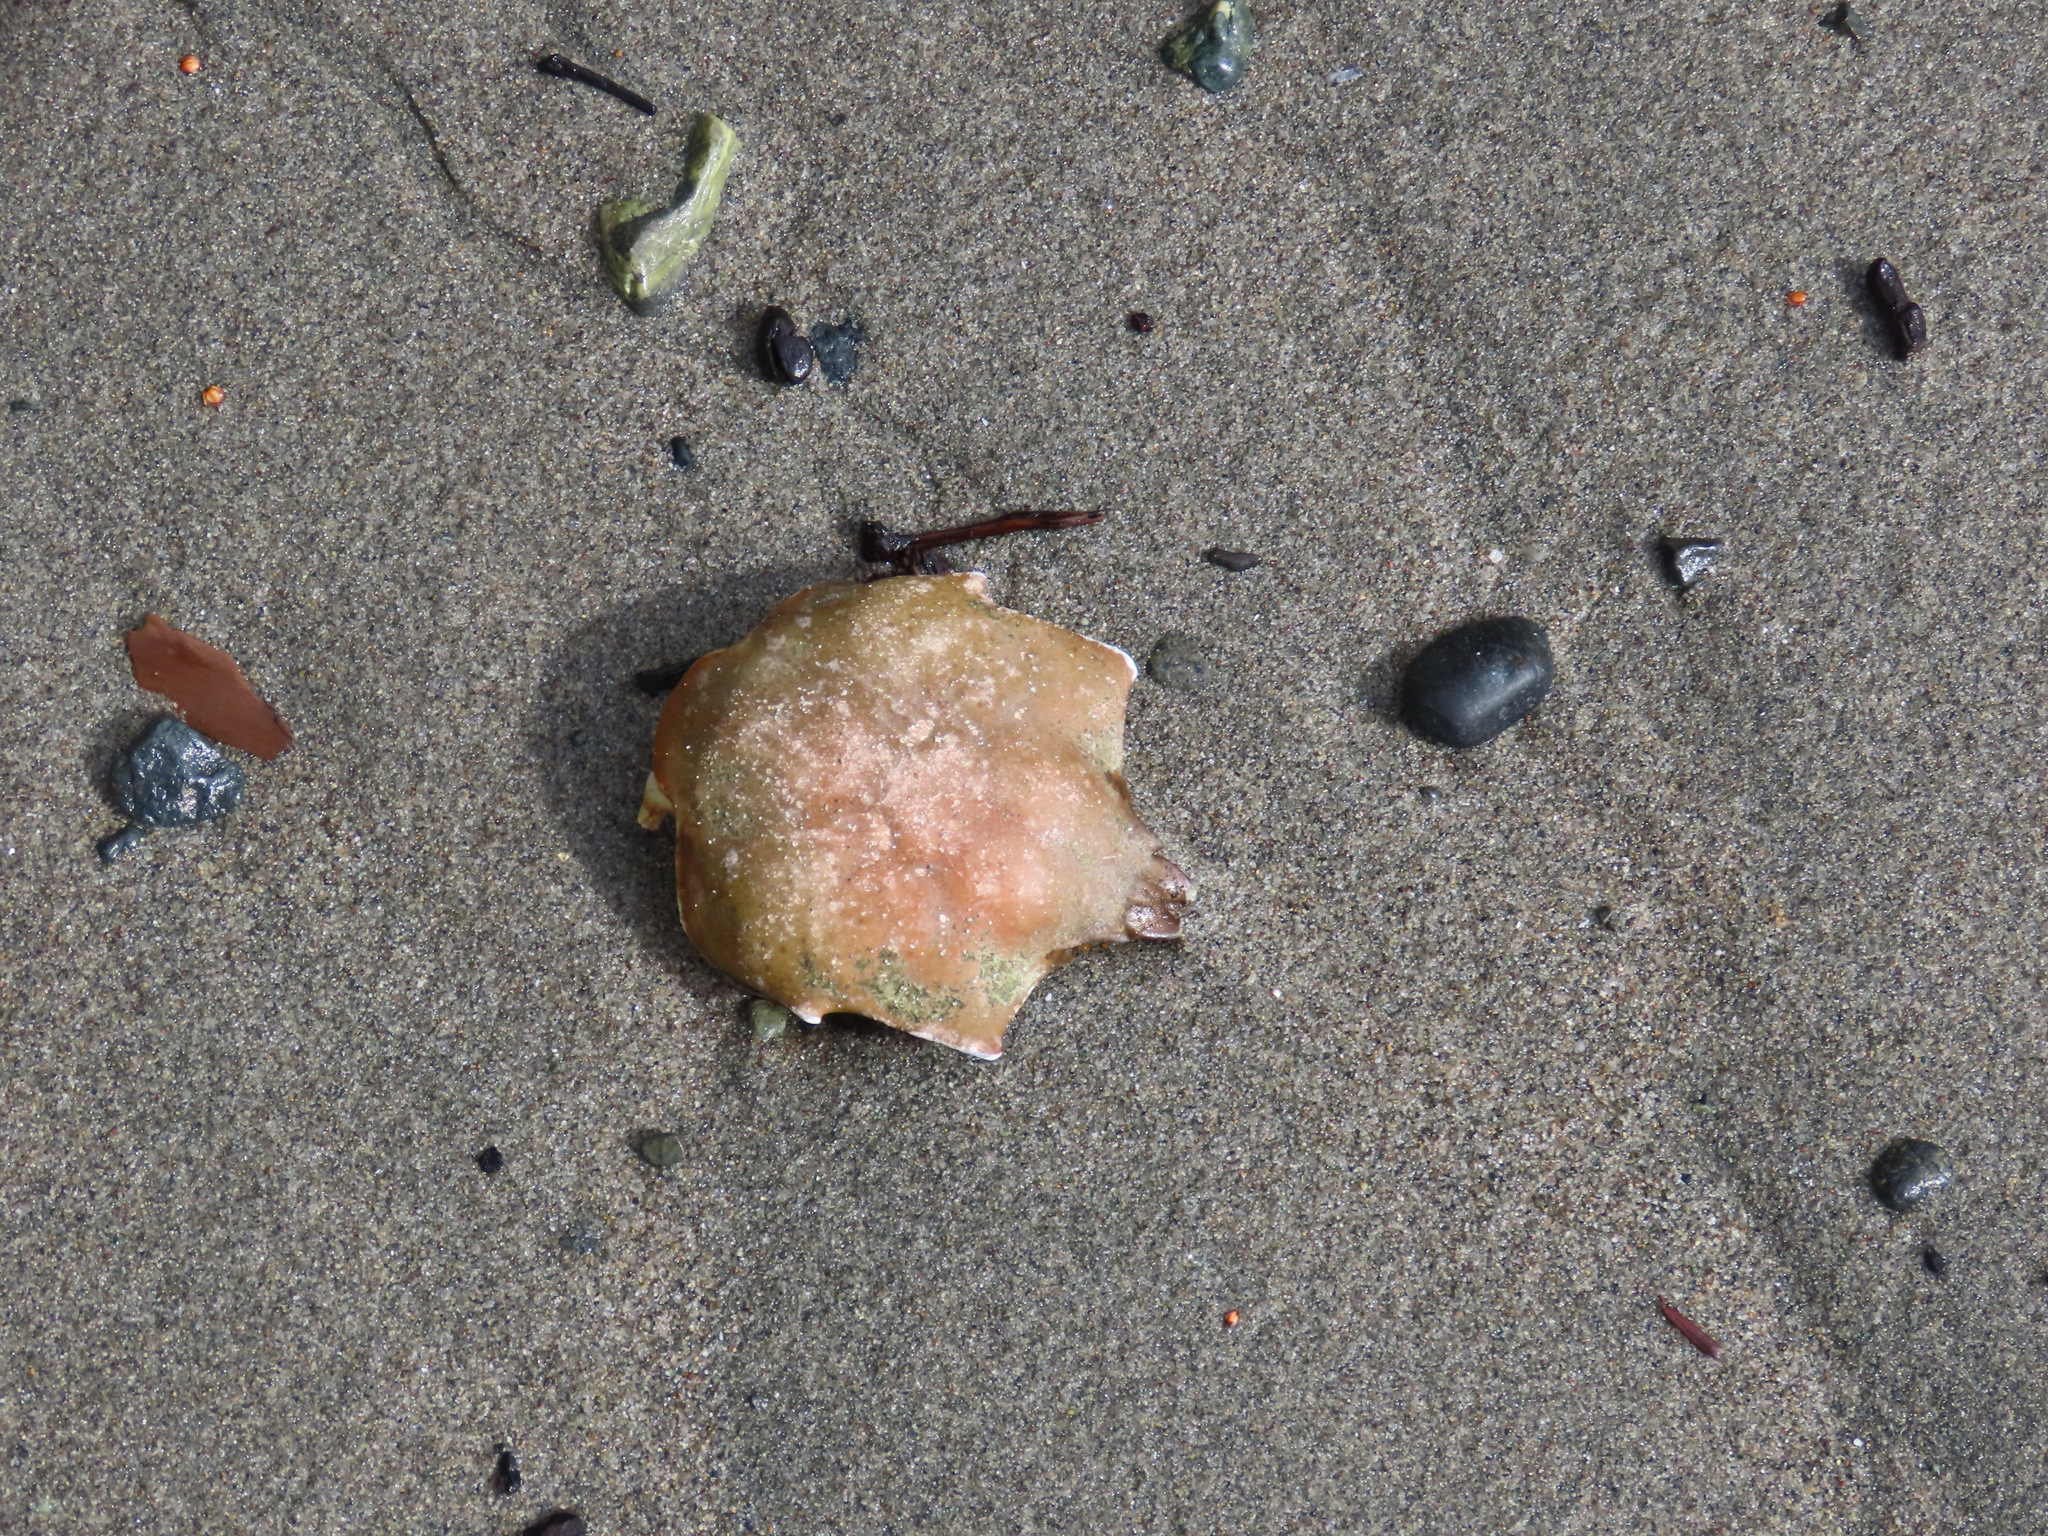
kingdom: Animalia
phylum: Arthropoda
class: Malacostraca
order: Decapoda
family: Epialtidae
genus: Pugettia
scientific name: Pugettia producta
